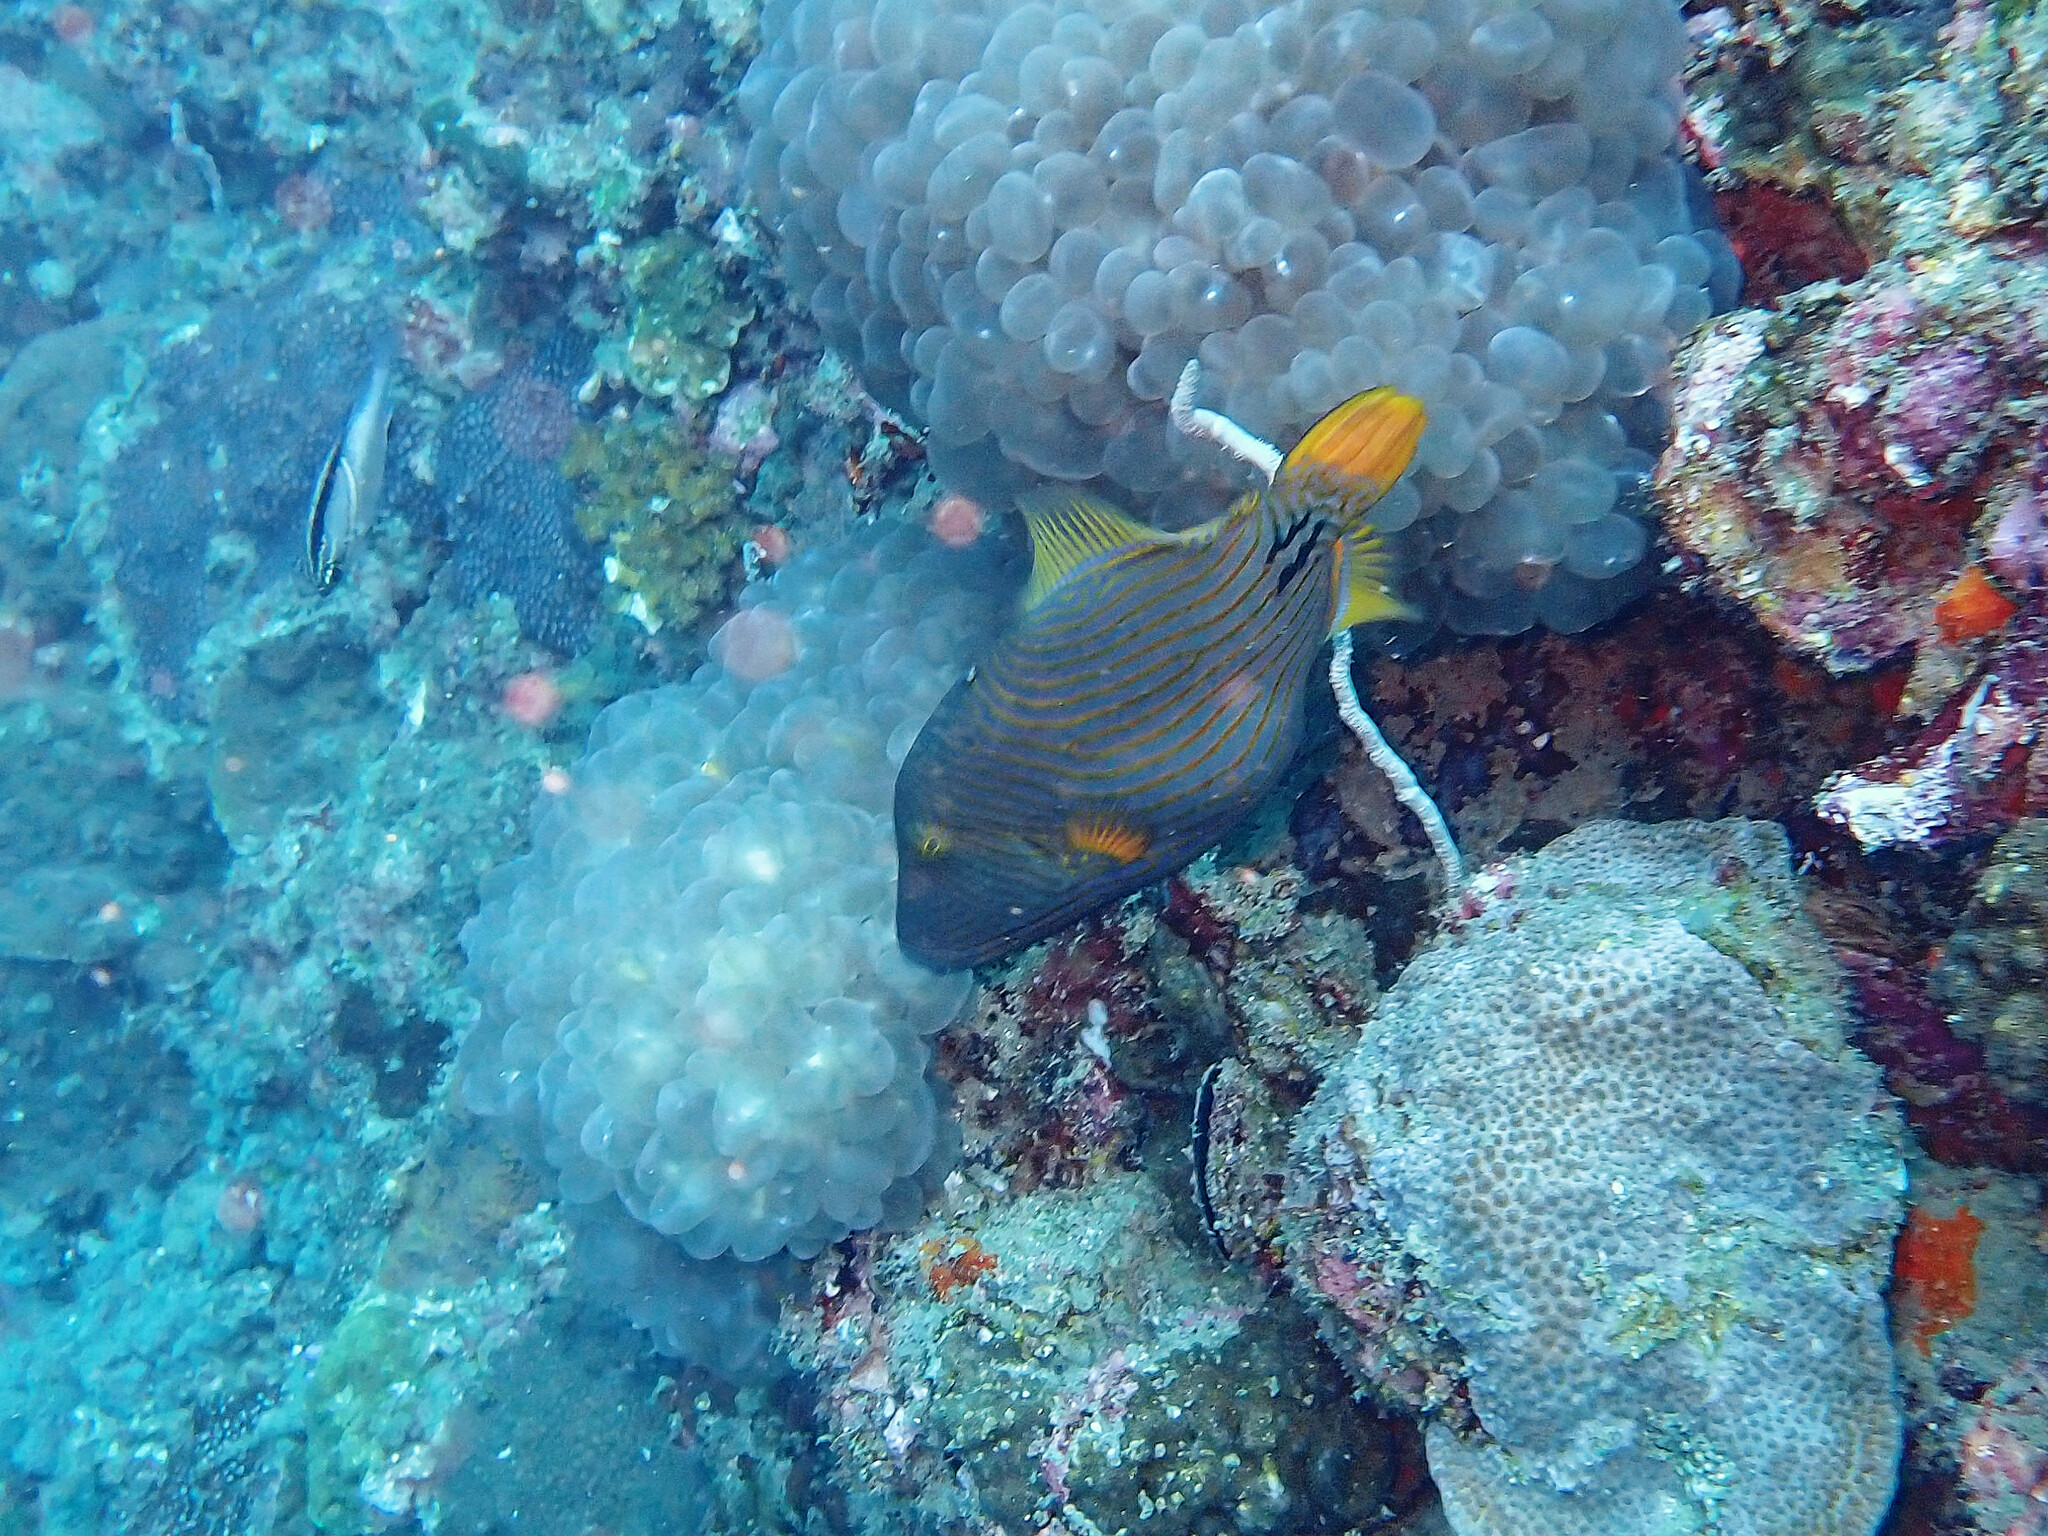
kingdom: Animalia
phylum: Chordata
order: Tetraodontiformes
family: Balistidae
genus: Balistapus
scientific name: Balistapus undulatus
